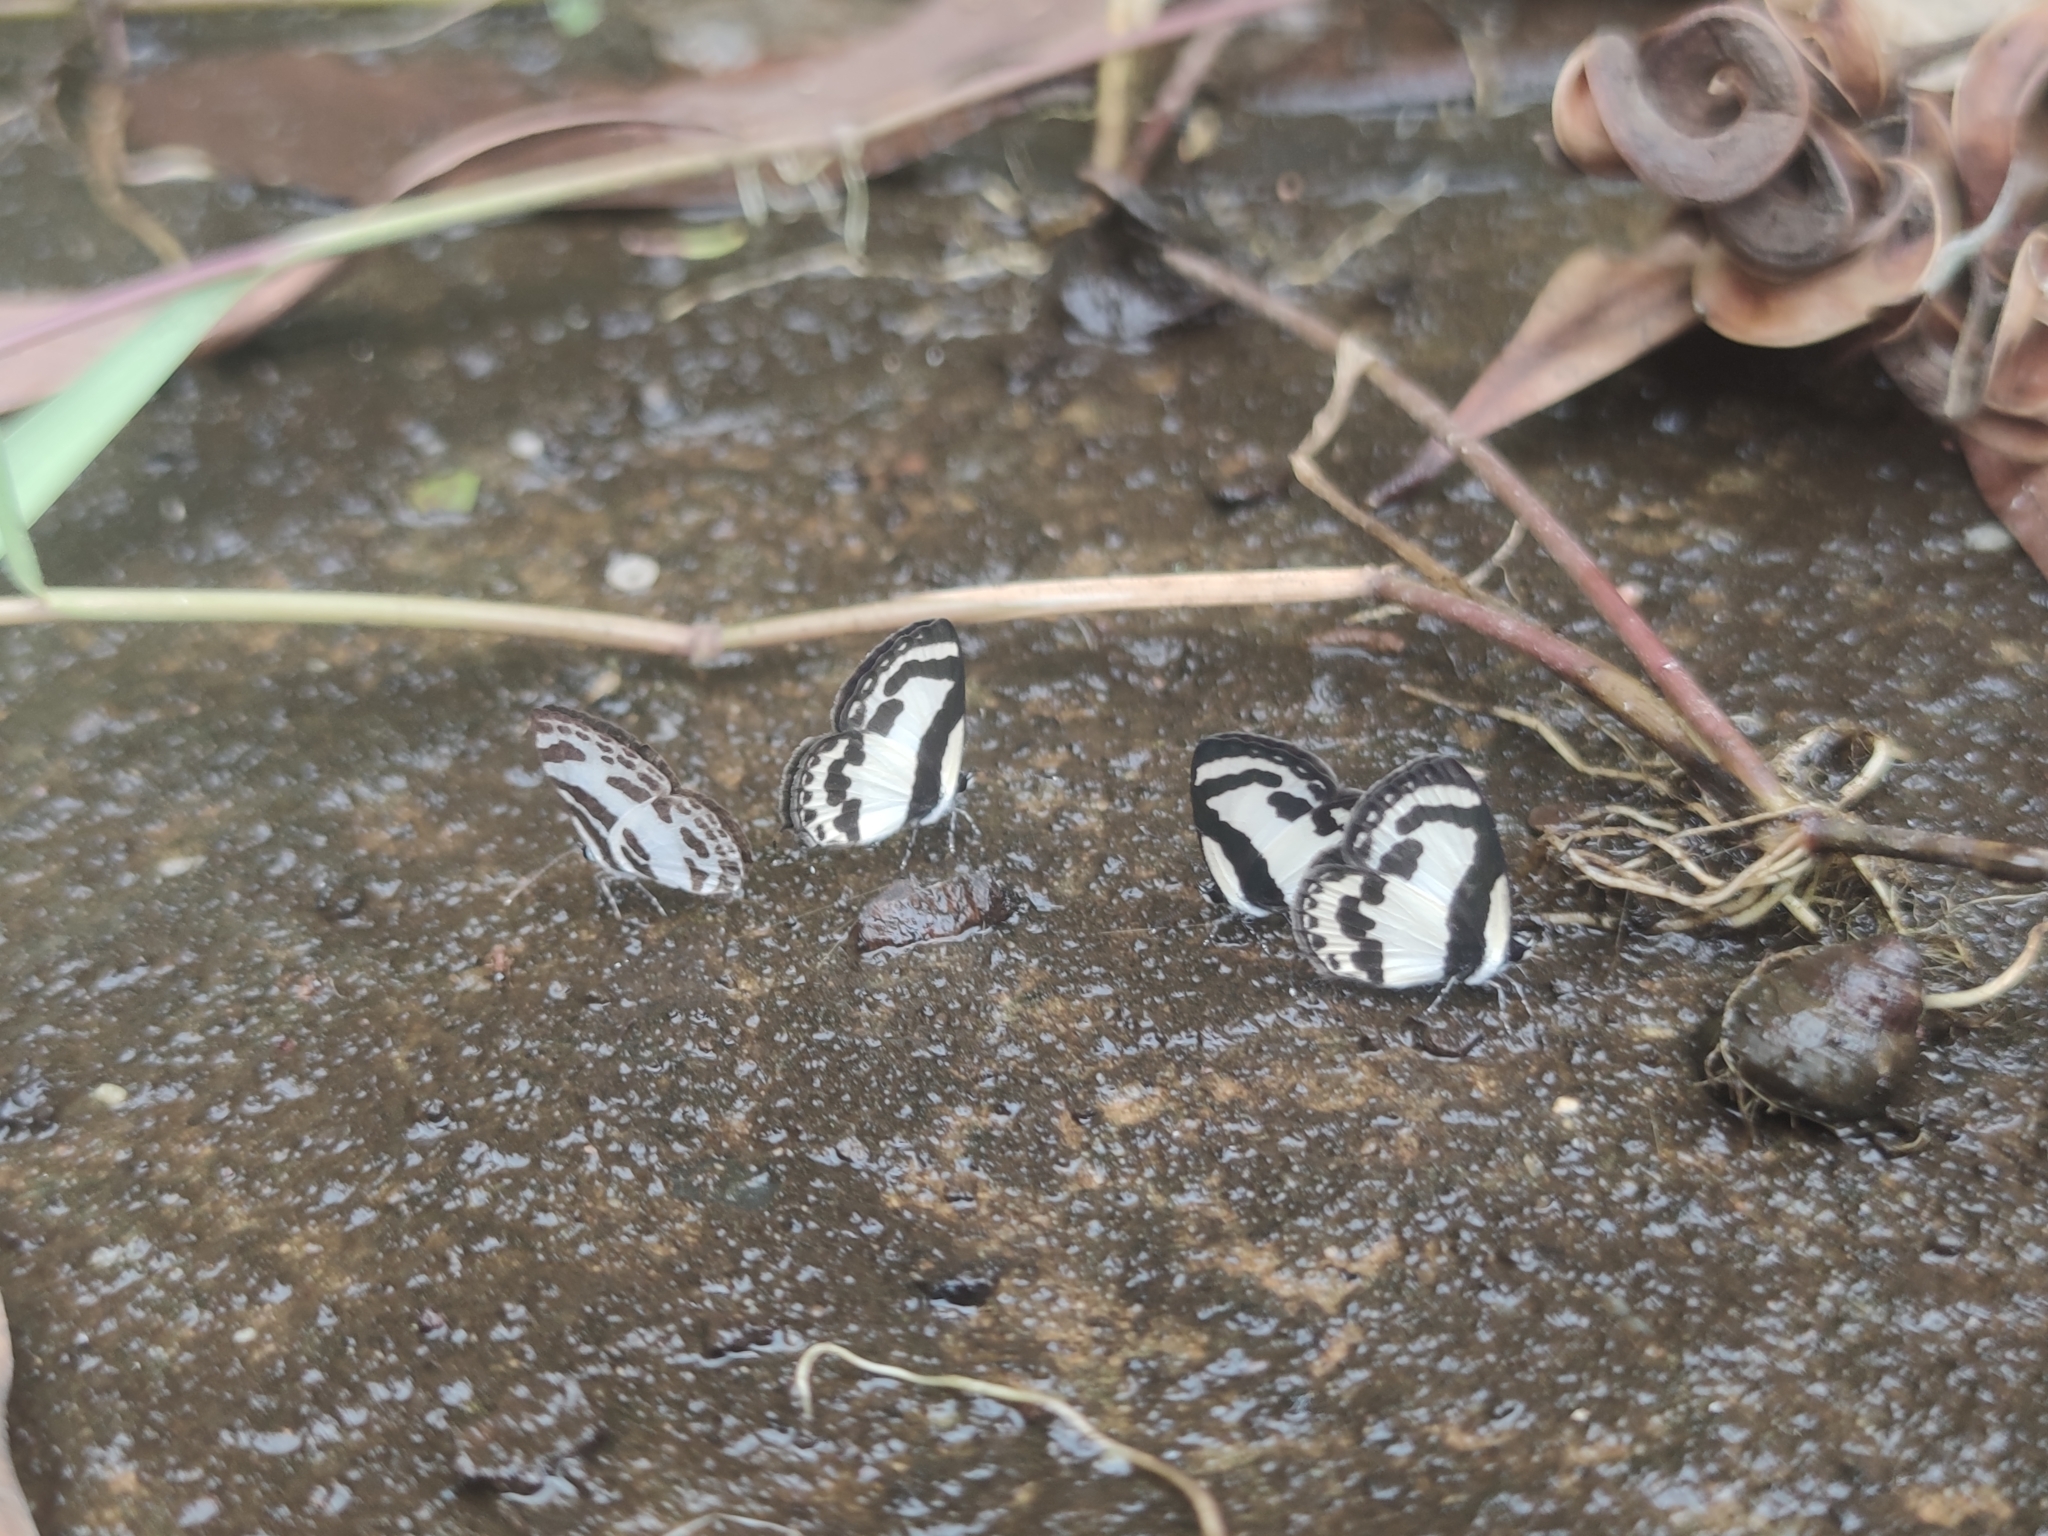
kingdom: Animalia
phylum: Arthropoda
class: Insecta
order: Lepidoptera
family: Lycaenidae
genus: Caleta
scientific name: Caleta roxus
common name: Straight pierrot
